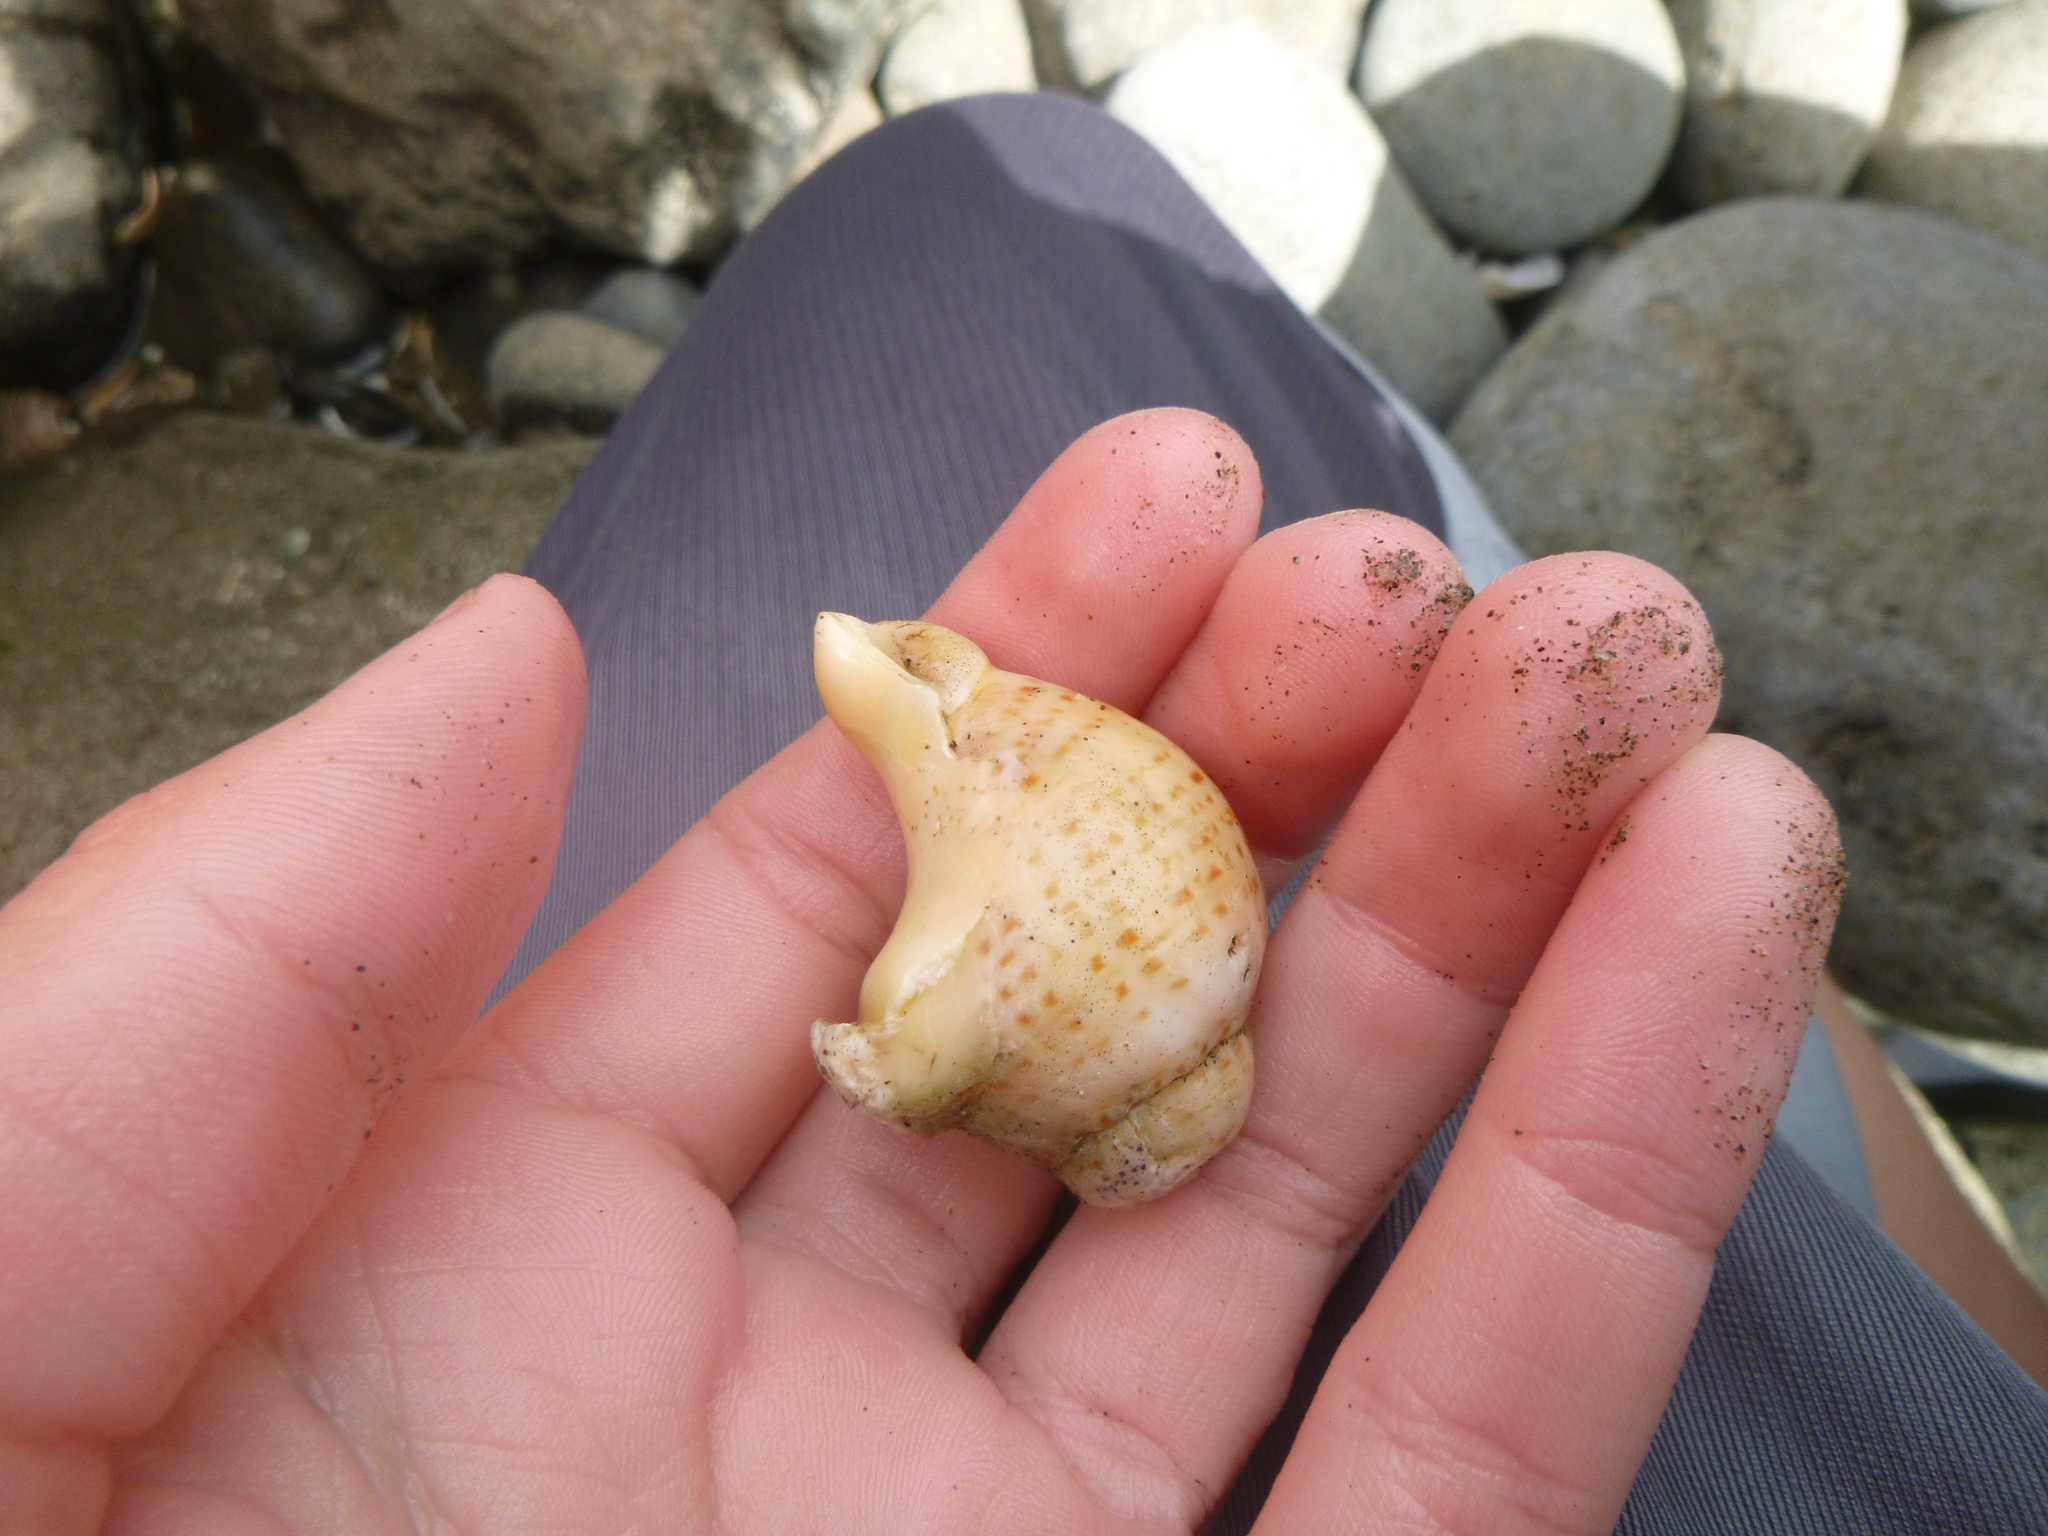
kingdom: Animalia
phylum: Mollusca
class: Gastropoda
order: Neogastropoda
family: Cominellidae
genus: Cominella
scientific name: Cominella adspersa
